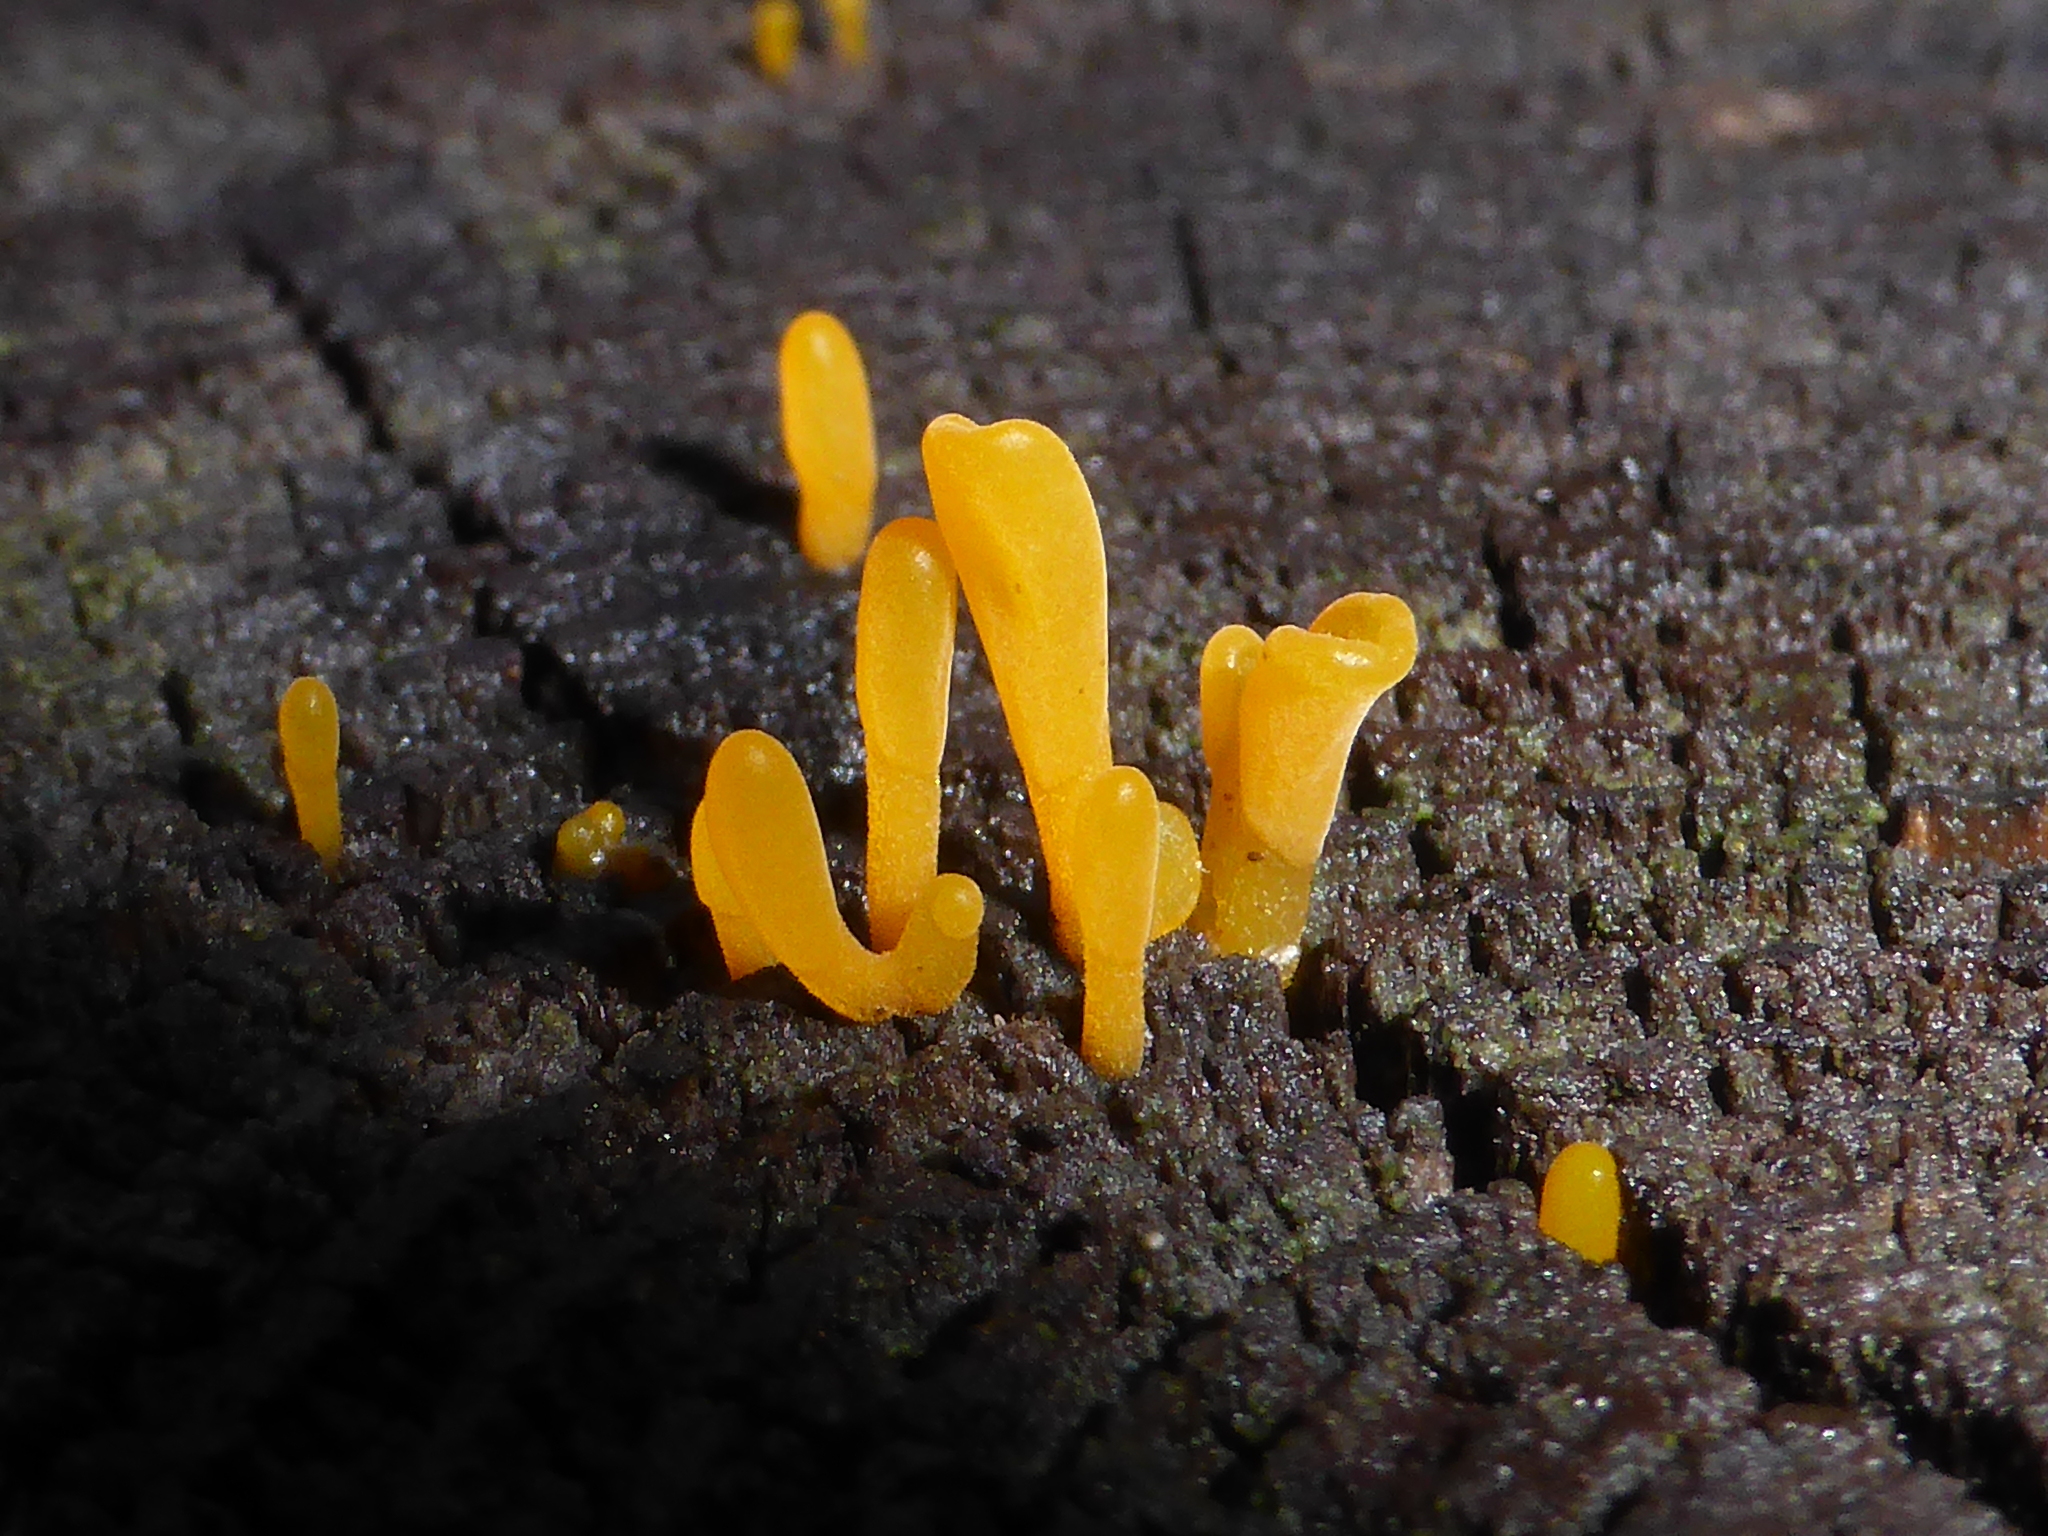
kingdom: Fungi
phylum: Basidiomycota
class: Dacrymycetes
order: Dacrymycetales
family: Dacrymycetaceae
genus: Dacrymyces
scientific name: Dacrymyces spathularius
